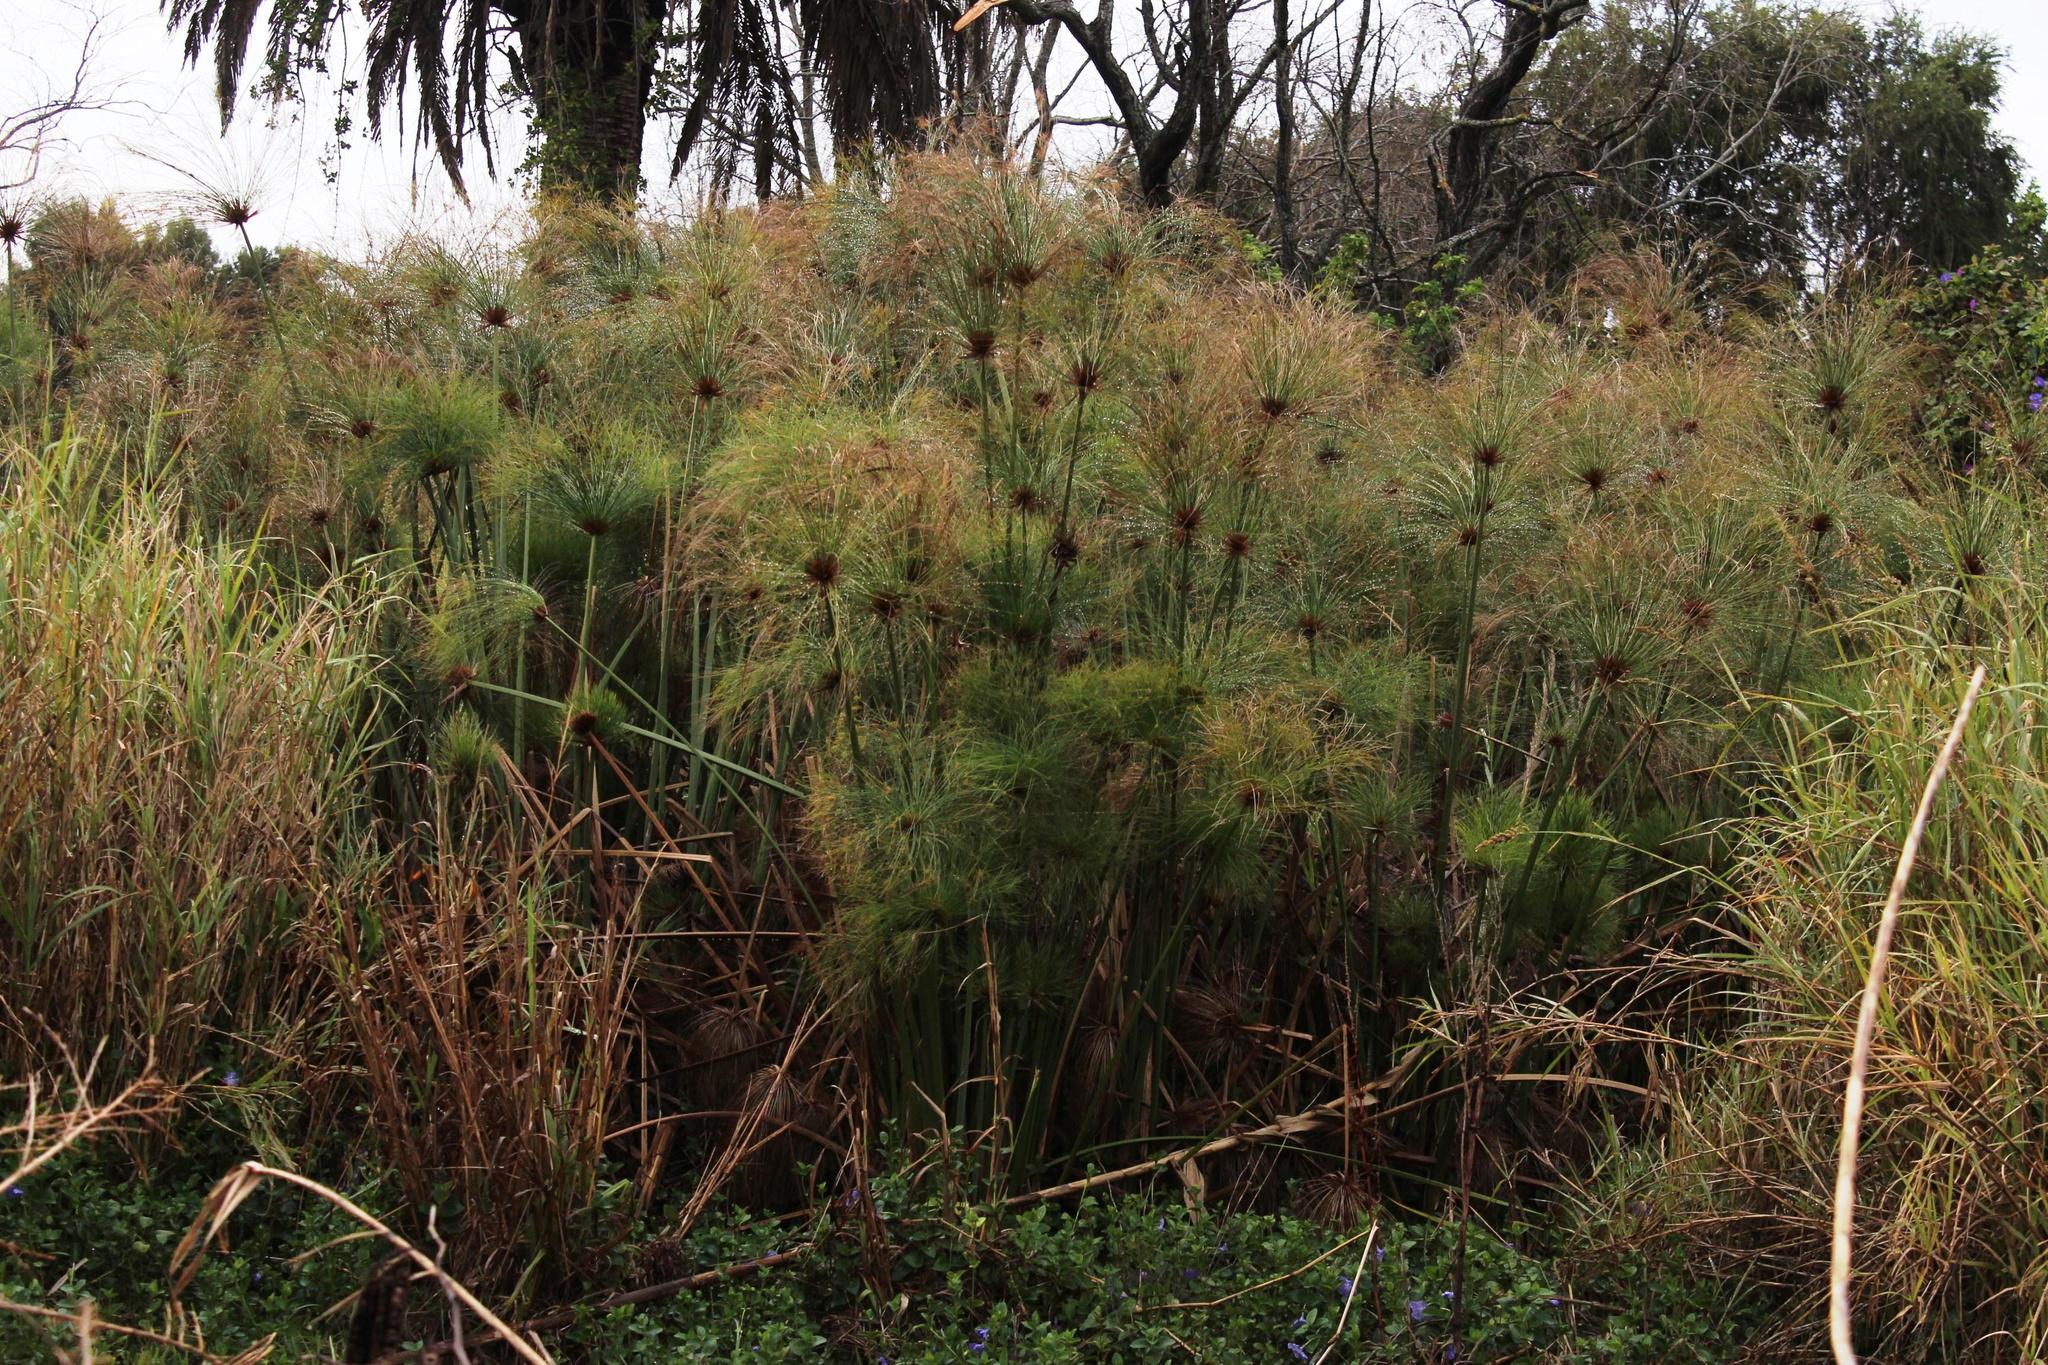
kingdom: Plantae
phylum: Tracheophyta
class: Liliopsida
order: Poales
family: Cyperaceae
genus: Cyperus
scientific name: Cyperus papyrus
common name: Papyrus
